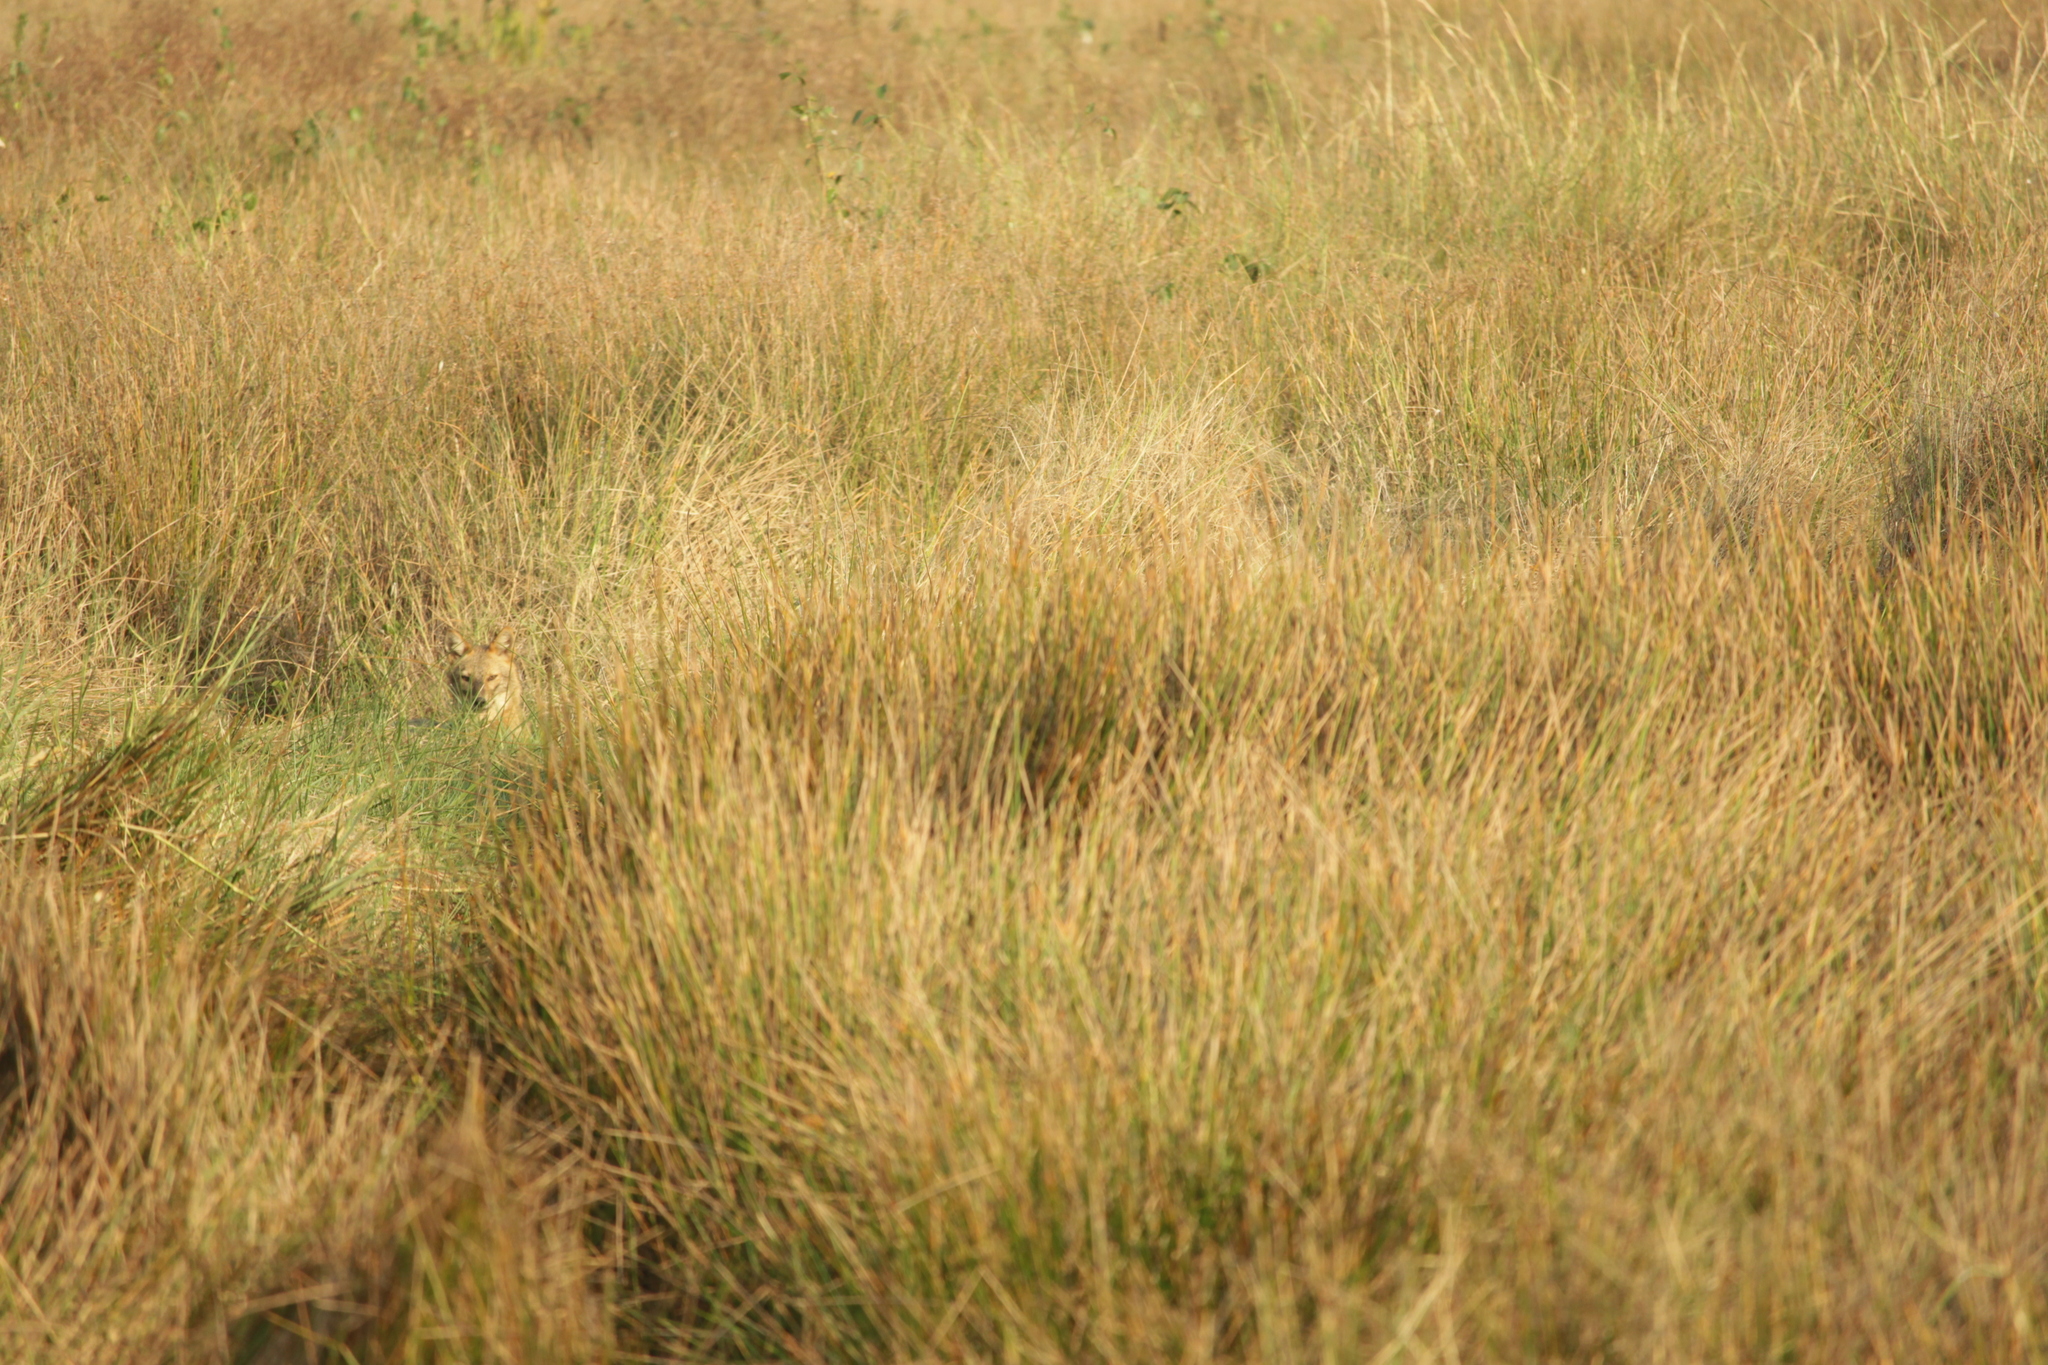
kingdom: Animalia
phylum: Chordata
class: Mammalia
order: Carnivora
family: Canidae
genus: Canis
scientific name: Canis aureus
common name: Golden jackal
